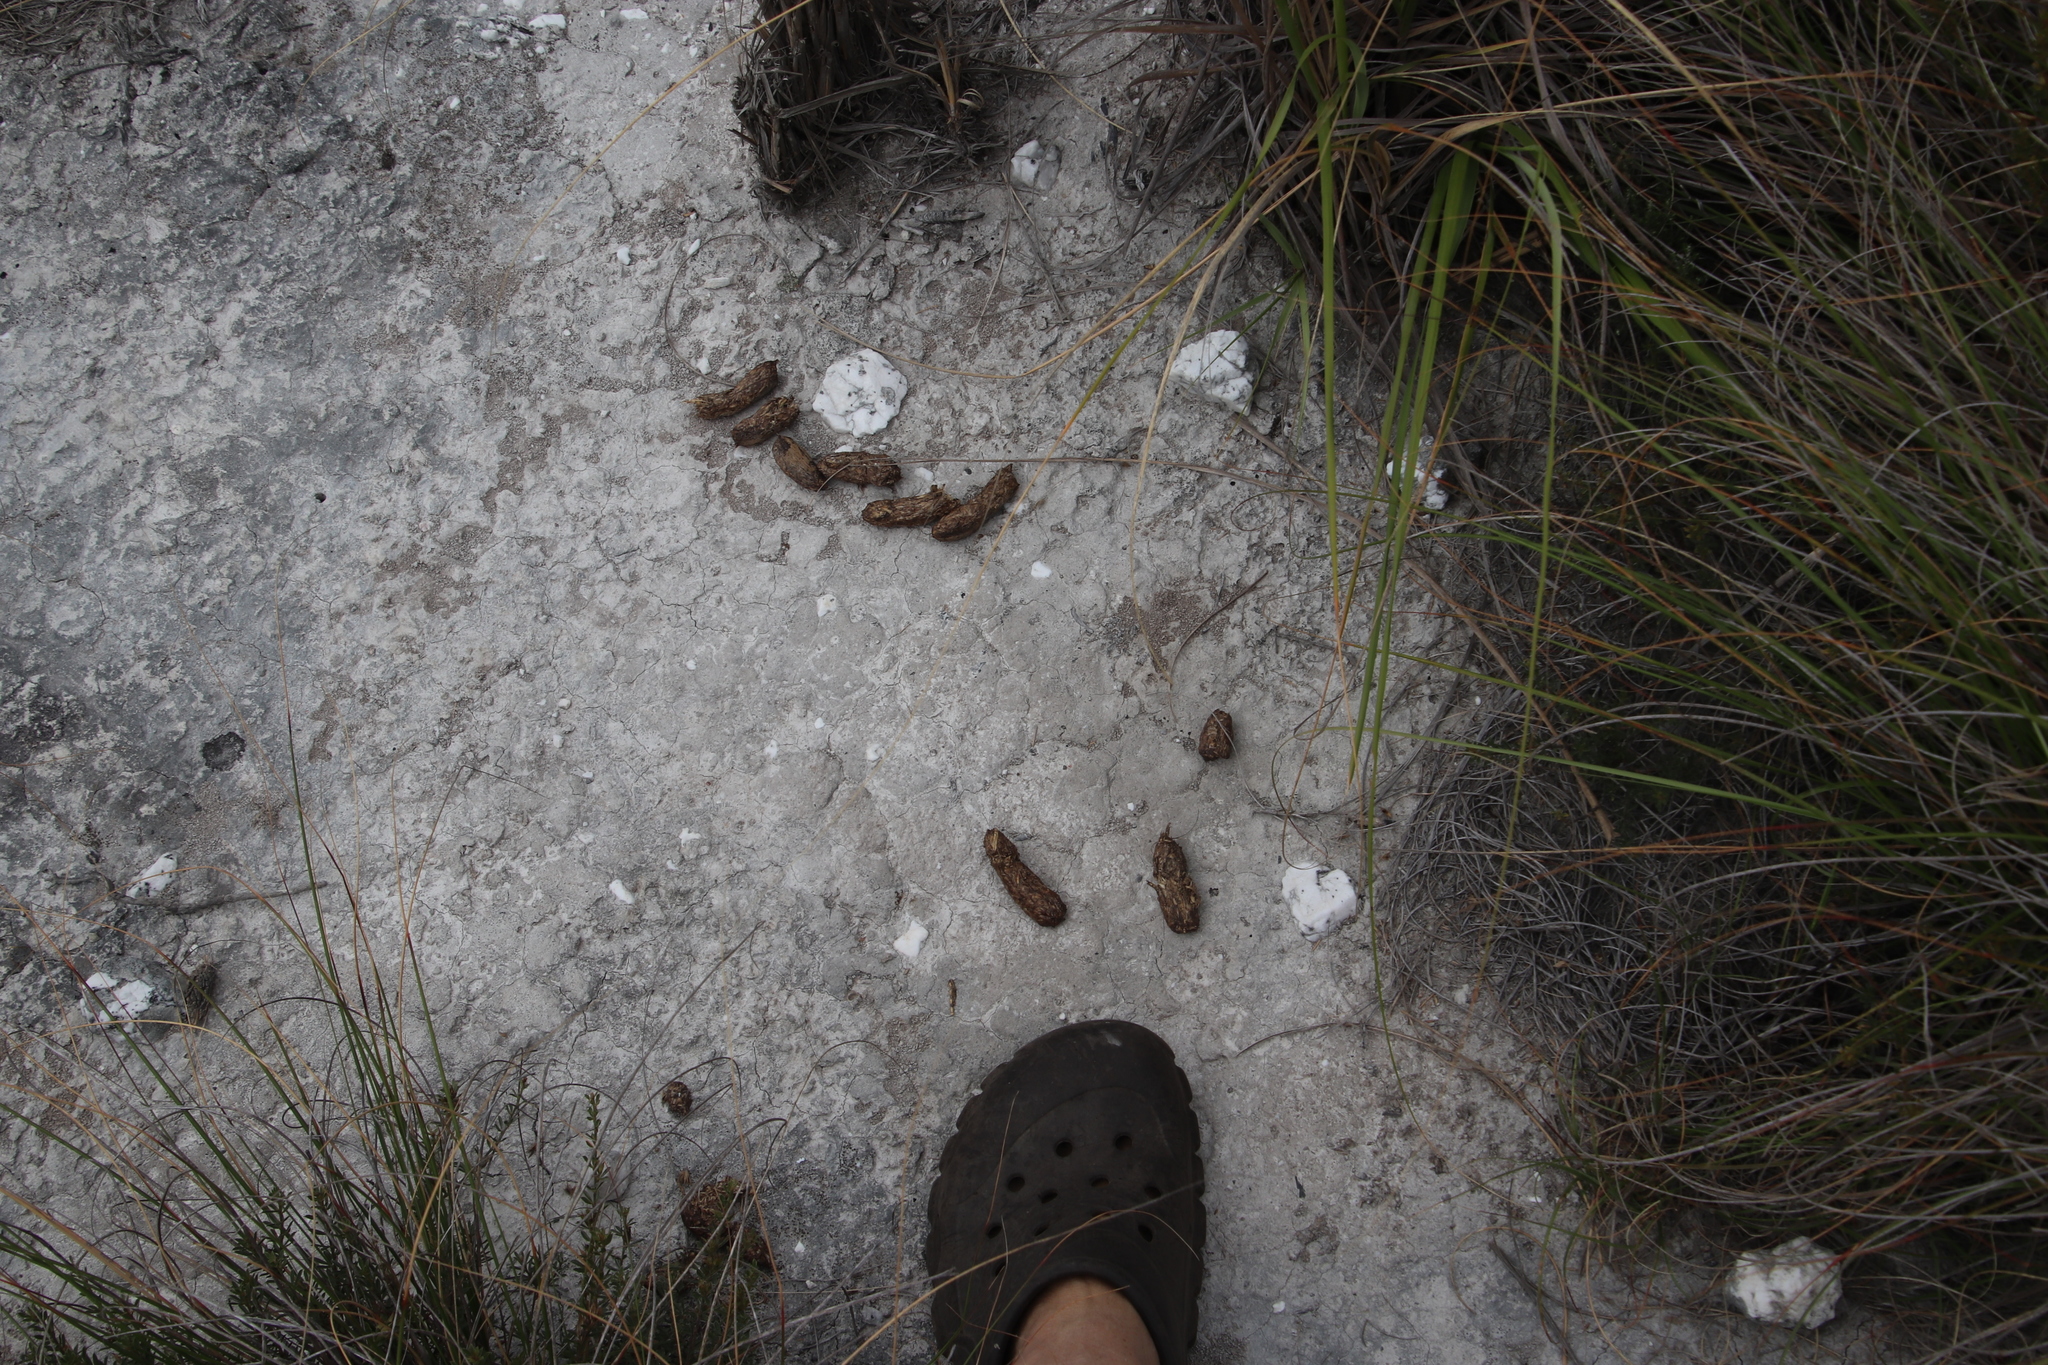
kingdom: Animalia
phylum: Chordata
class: Mammalia
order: Rodentia
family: Hystricidae
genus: Hystrix
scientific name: Hystrix africaeaustralis
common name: Cape porcupine
